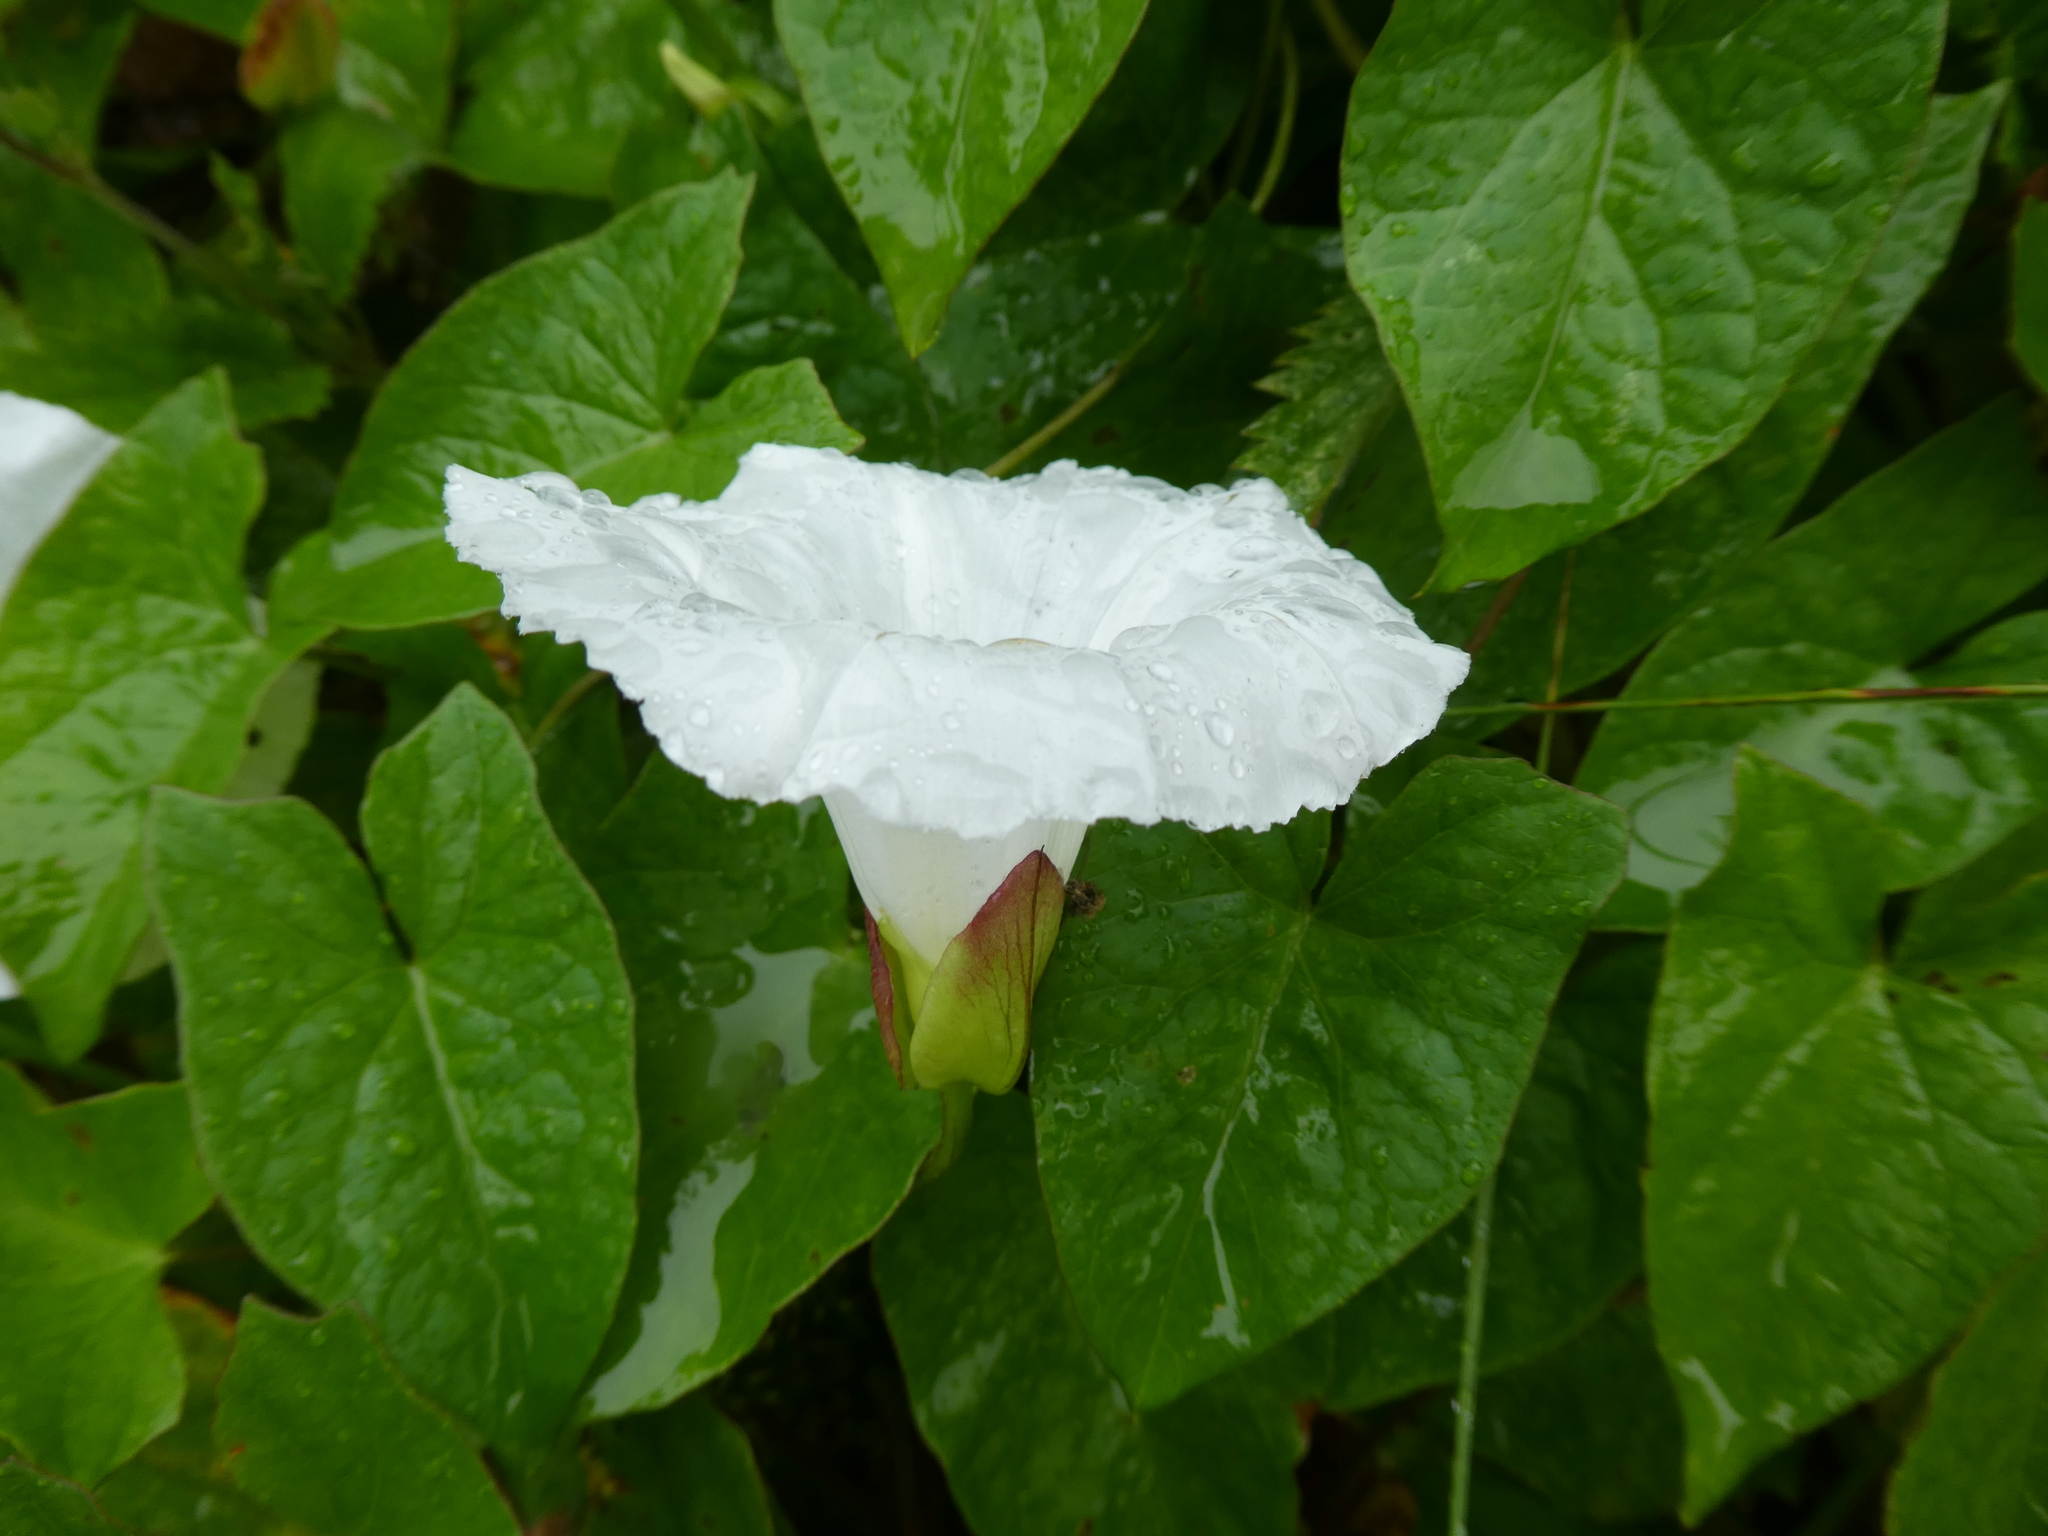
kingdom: Plantae
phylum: Tracheophyta
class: Magnoliopsida
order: Solanales
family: Convolvulaceae
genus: Calystegia
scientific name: Calystegia sepium
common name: Hedge bindweed
